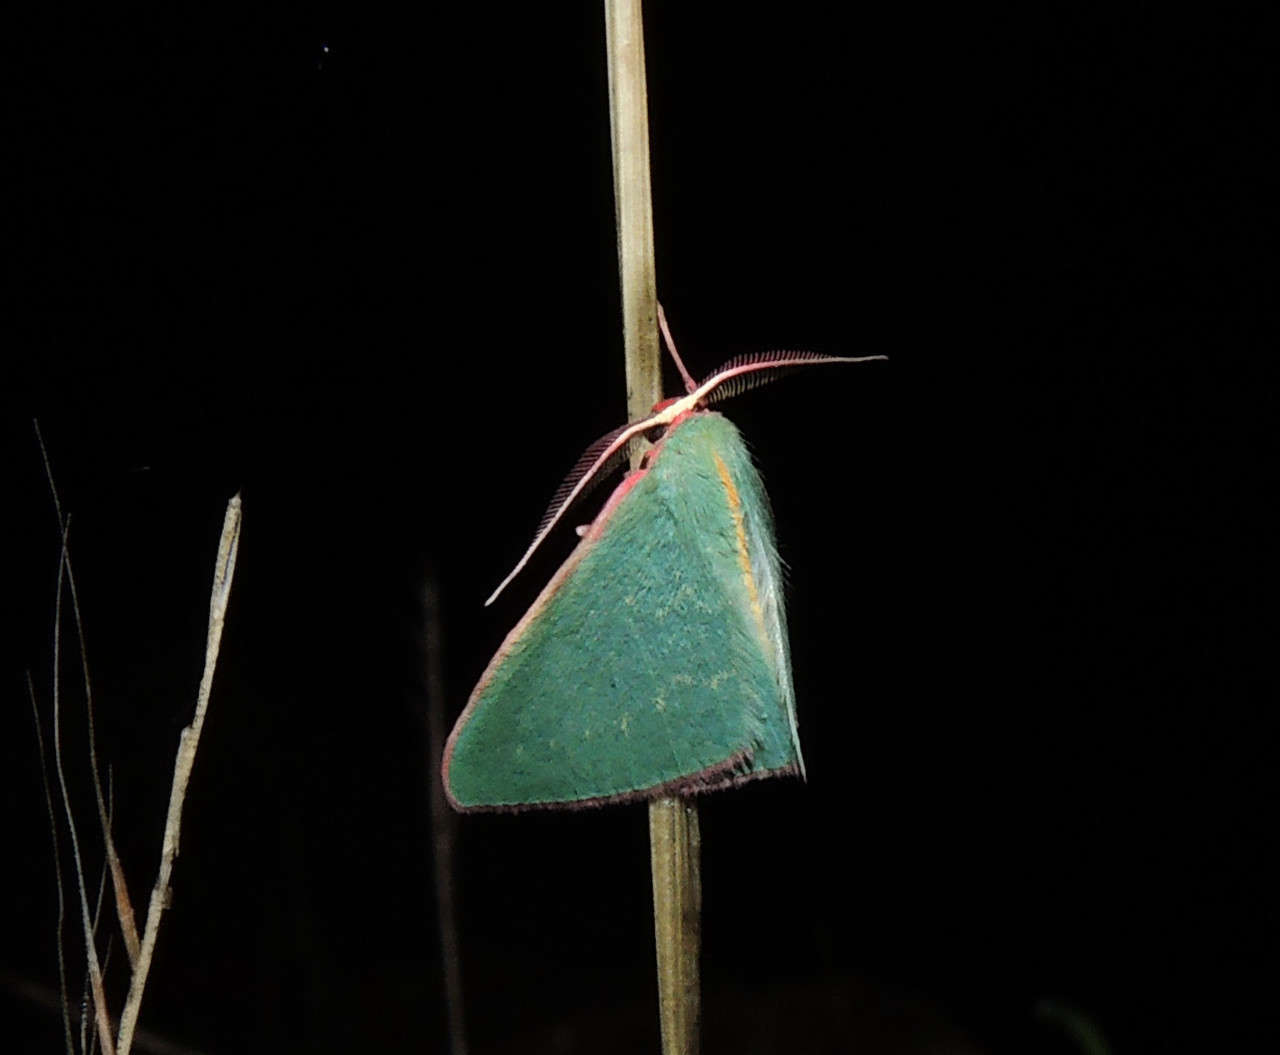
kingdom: Animalia
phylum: Arthropoda
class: Insecta
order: Lepidoptera
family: Geometridae
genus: Chlorocoma
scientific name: Chlorocoma vertumnaria
